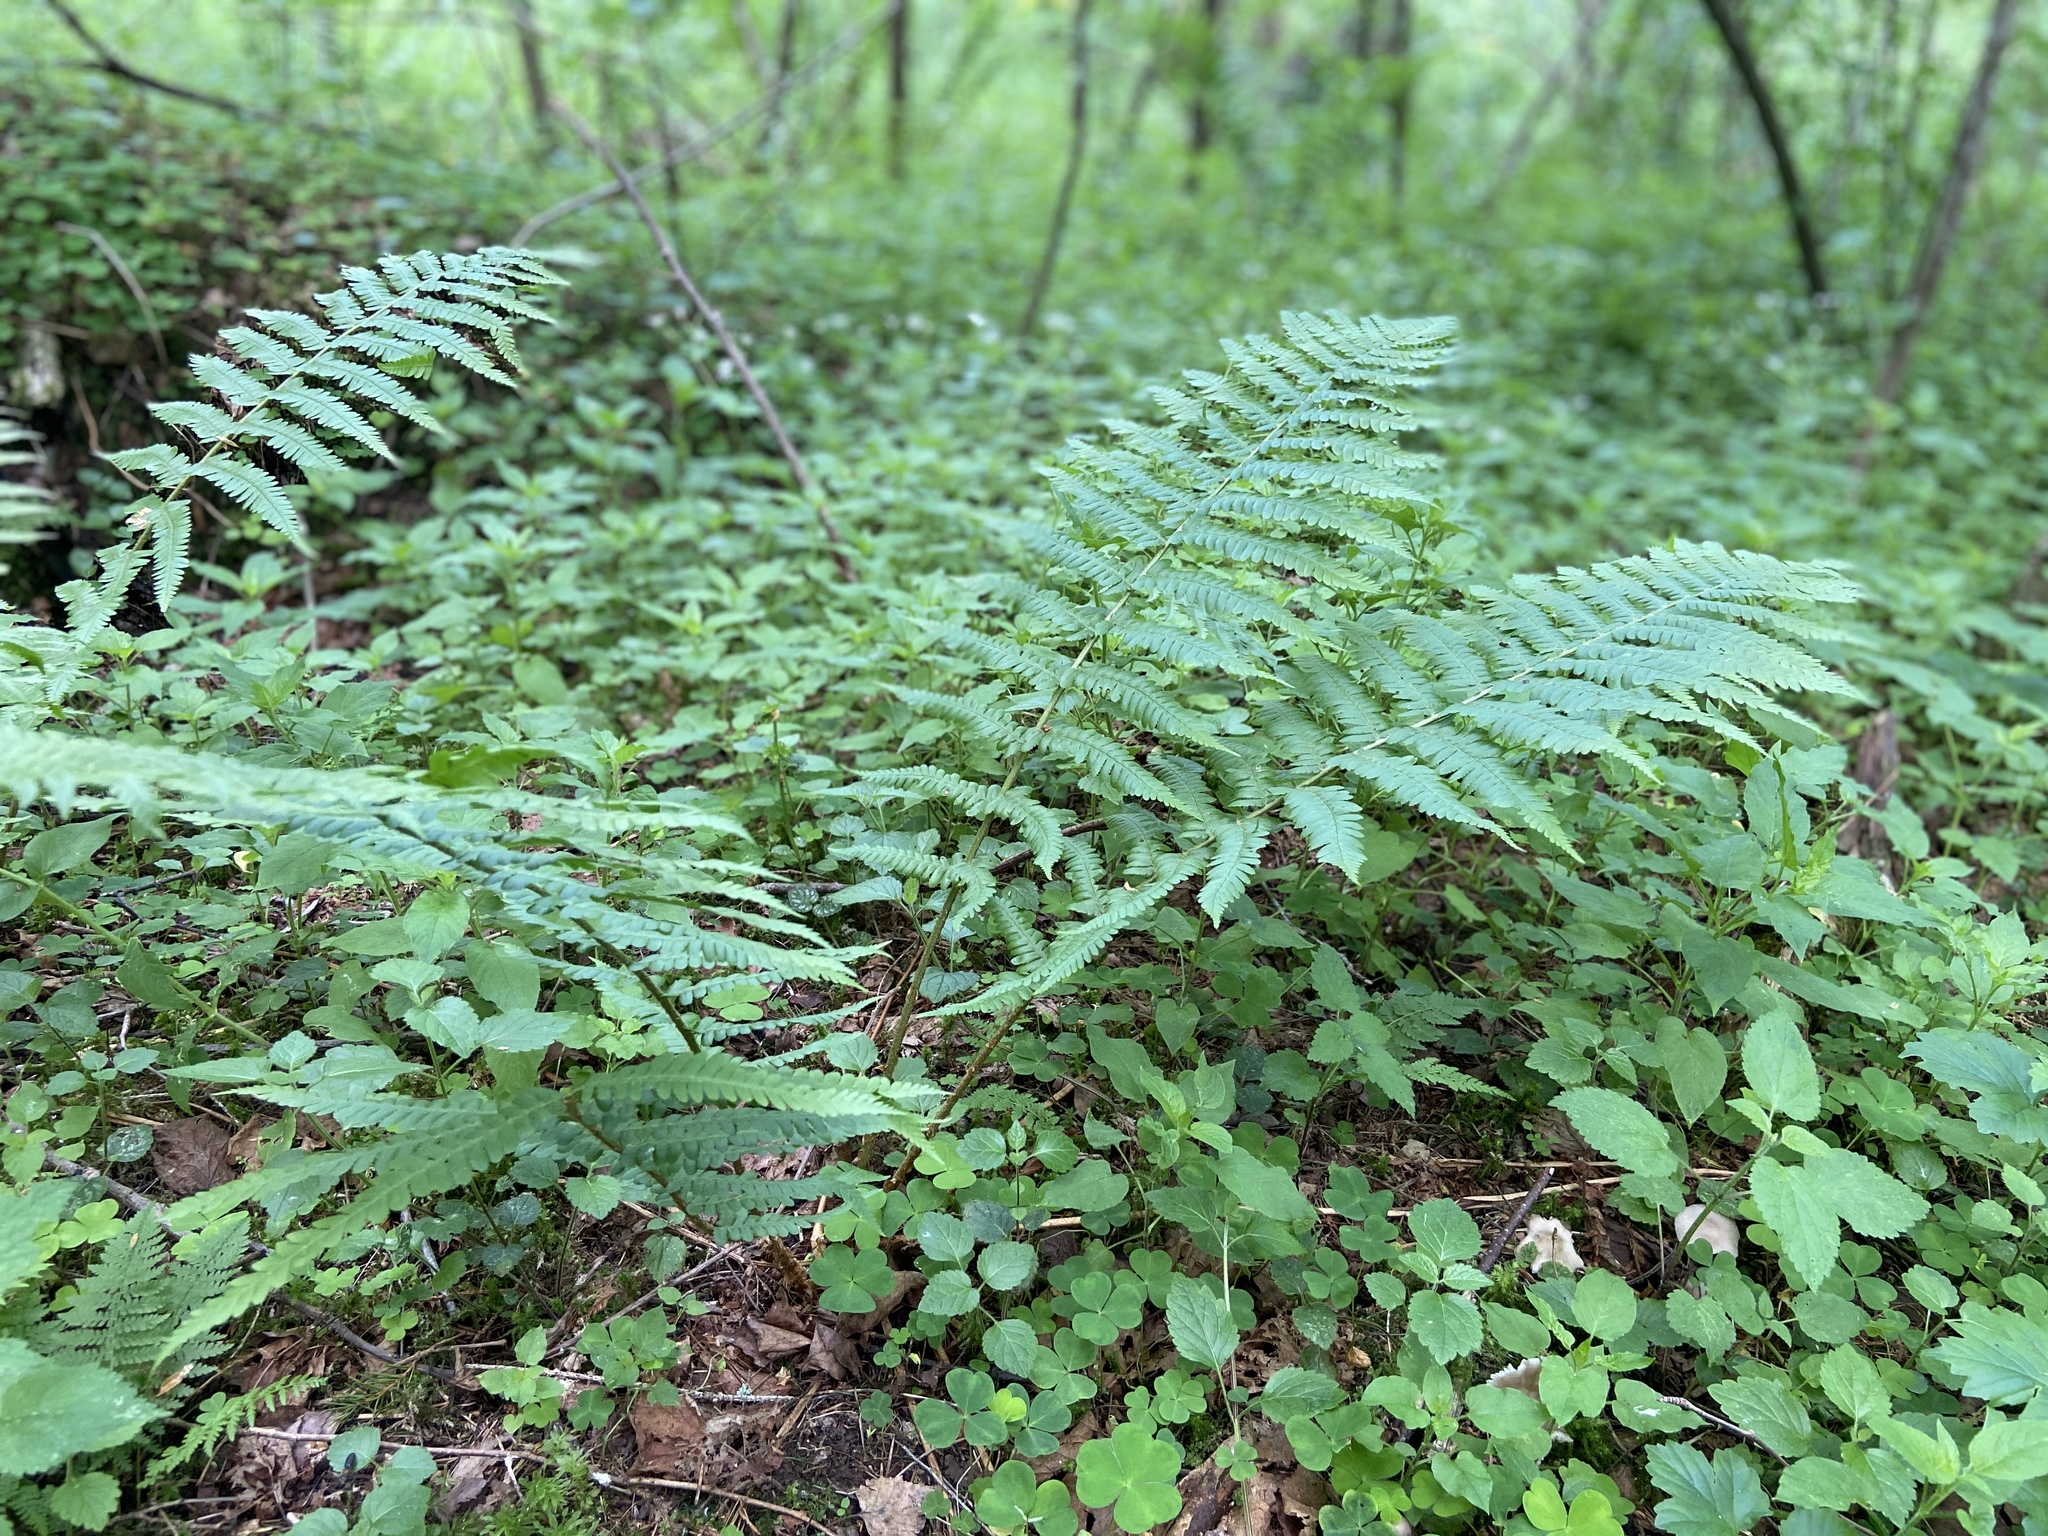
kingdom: Plantae
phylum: Tracheophyta
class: Polypodiopsida
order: Polypodiales
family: Dryopteridaceae
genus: Dryopteris
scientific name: Dryopteris filix-mas
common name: Male fern
